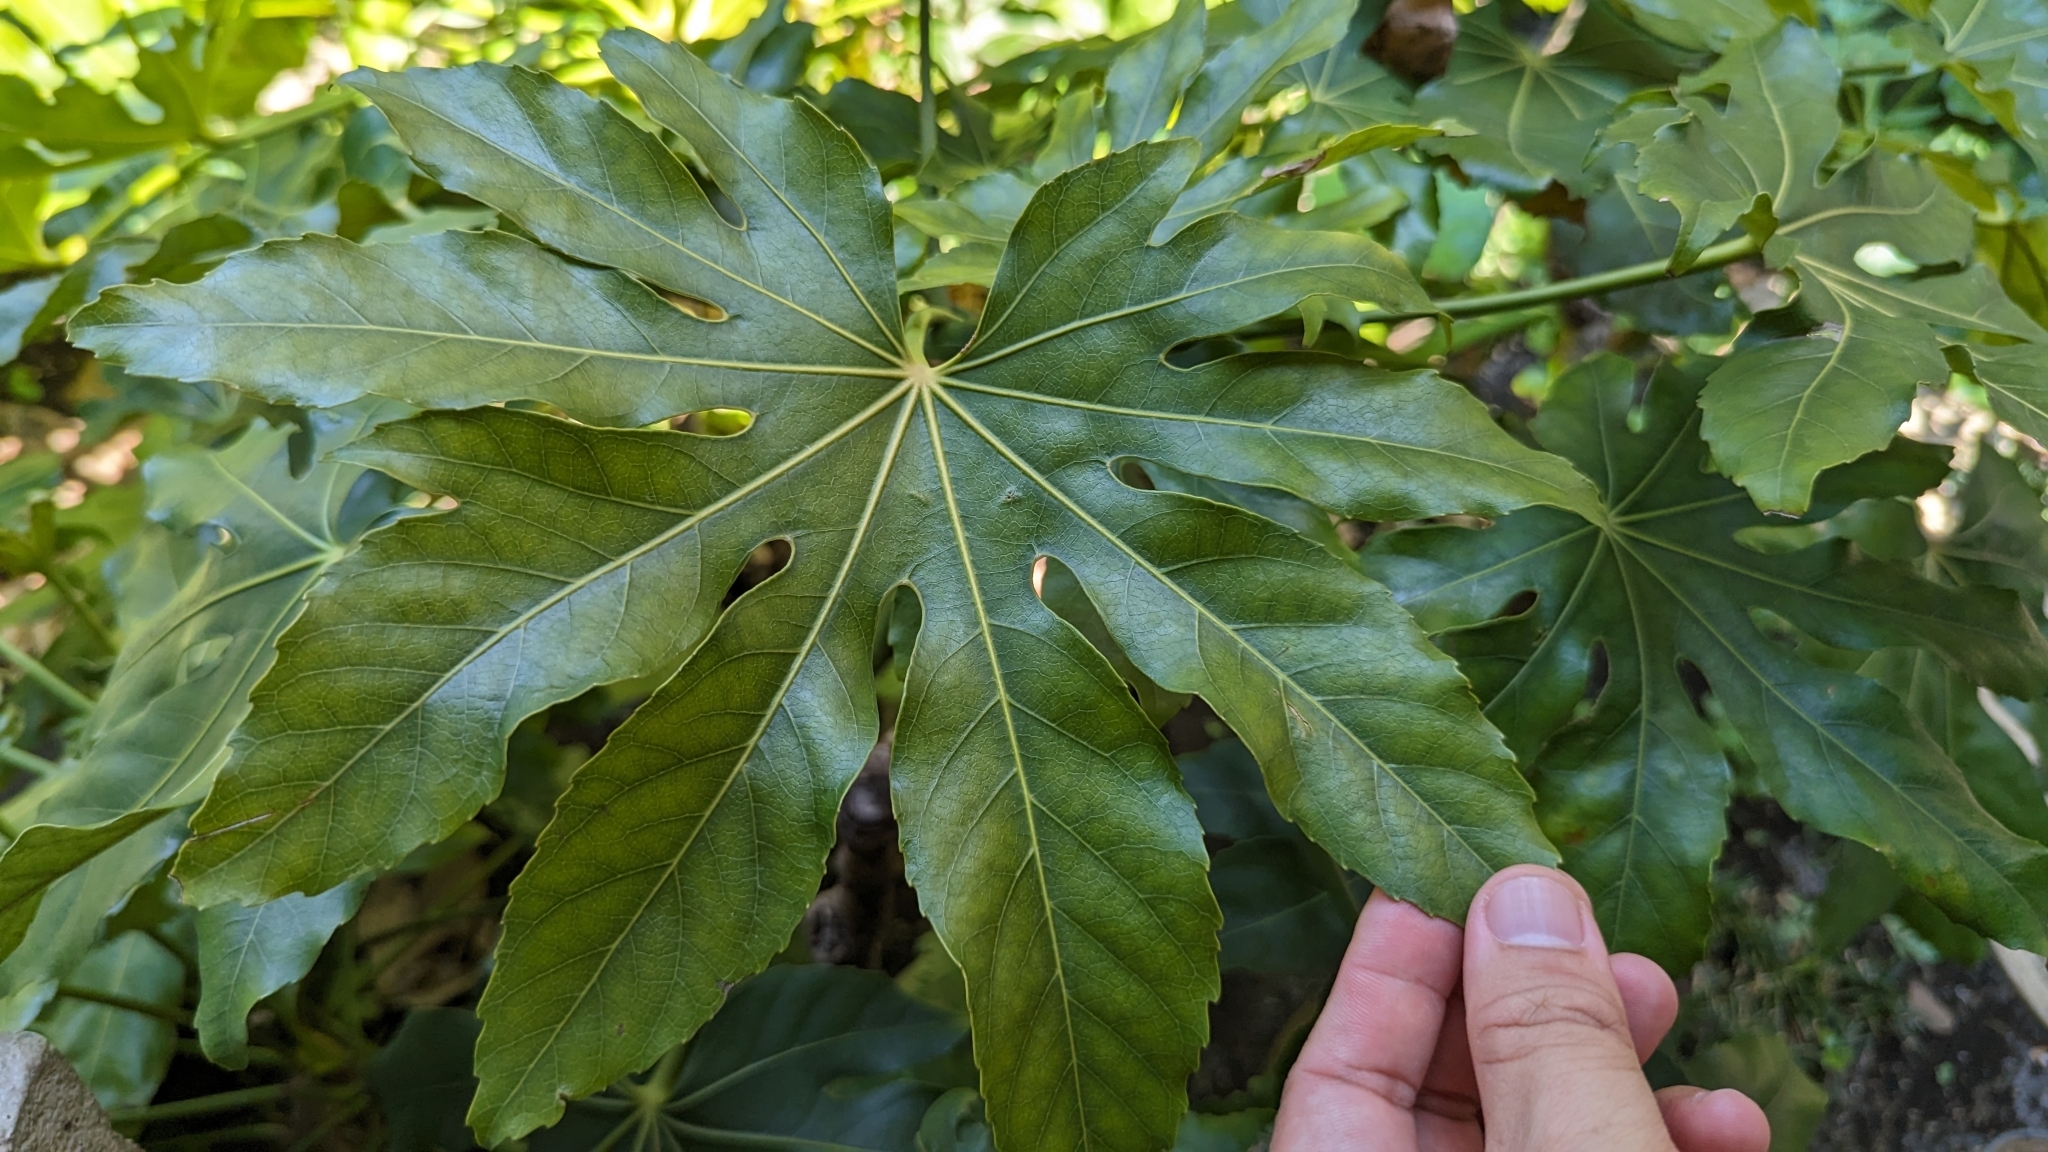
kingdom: Plantae
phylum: Tracheophyta
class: Magnoliopsida
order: Apiales
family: Araliaceae
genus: Fatsia
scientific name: Fatsia japonica
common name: Fatsia
